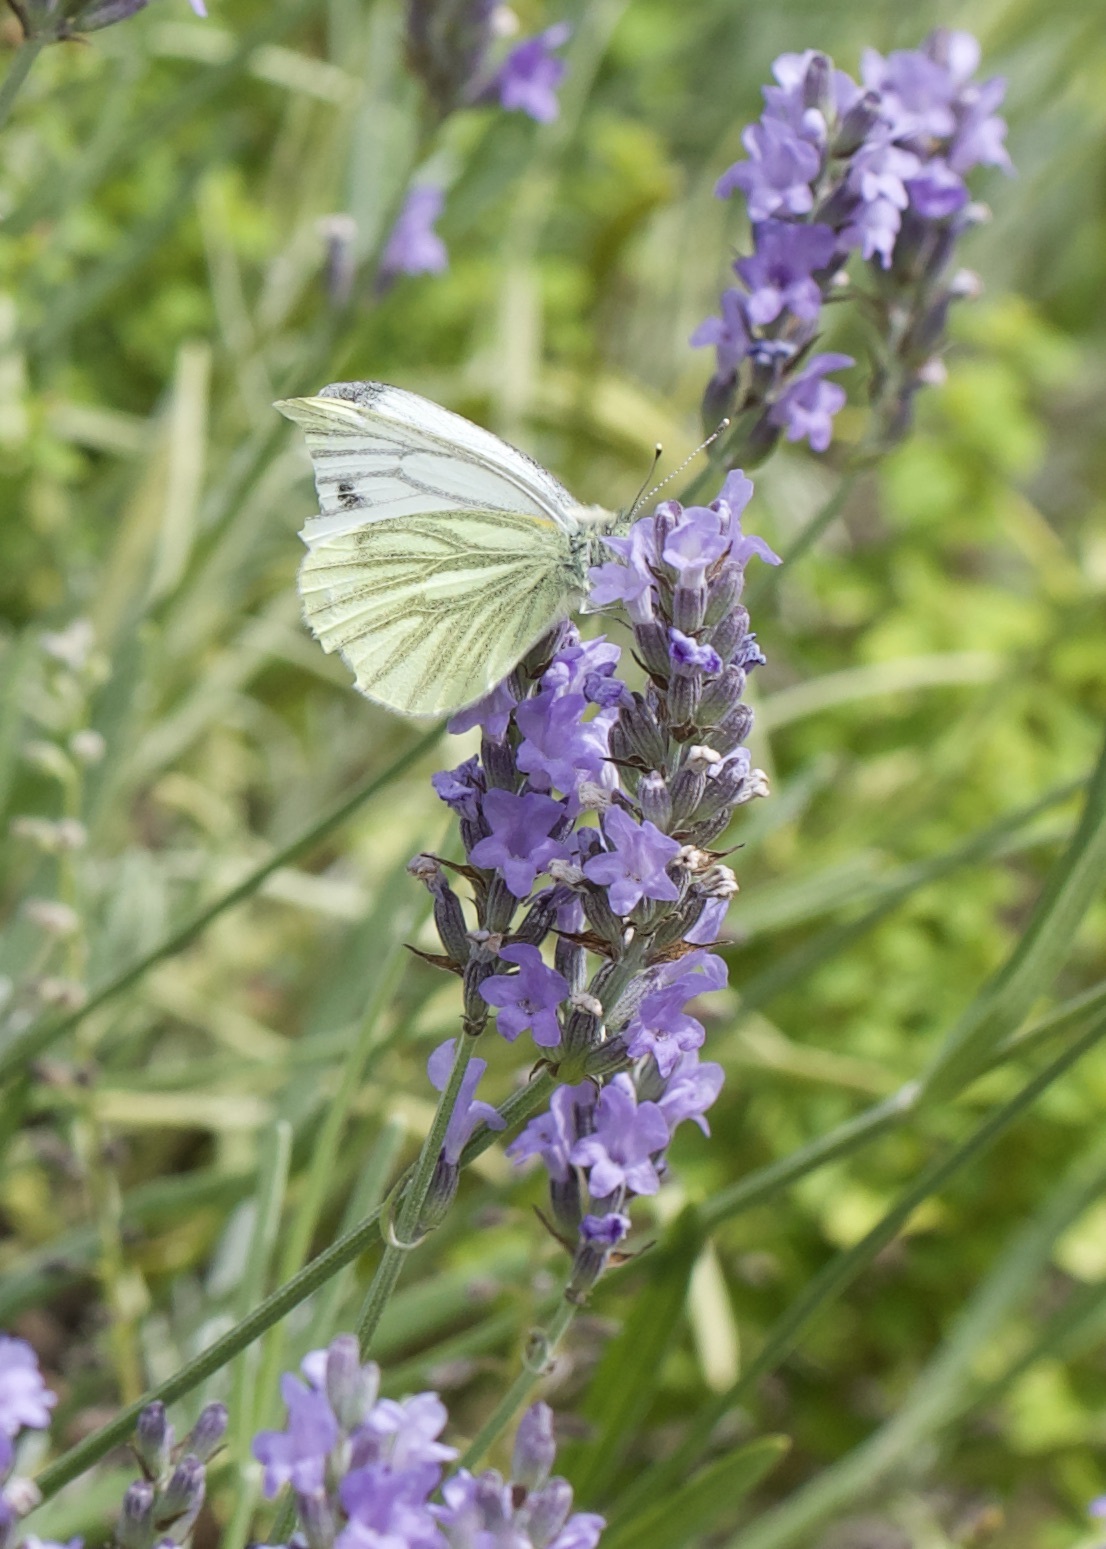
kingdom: Animalia
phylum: Arthropoda
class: Insecta
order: Lepidoptera
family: Pieridae
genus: Pieris
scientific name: Pieris napi
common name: Green-veined white
